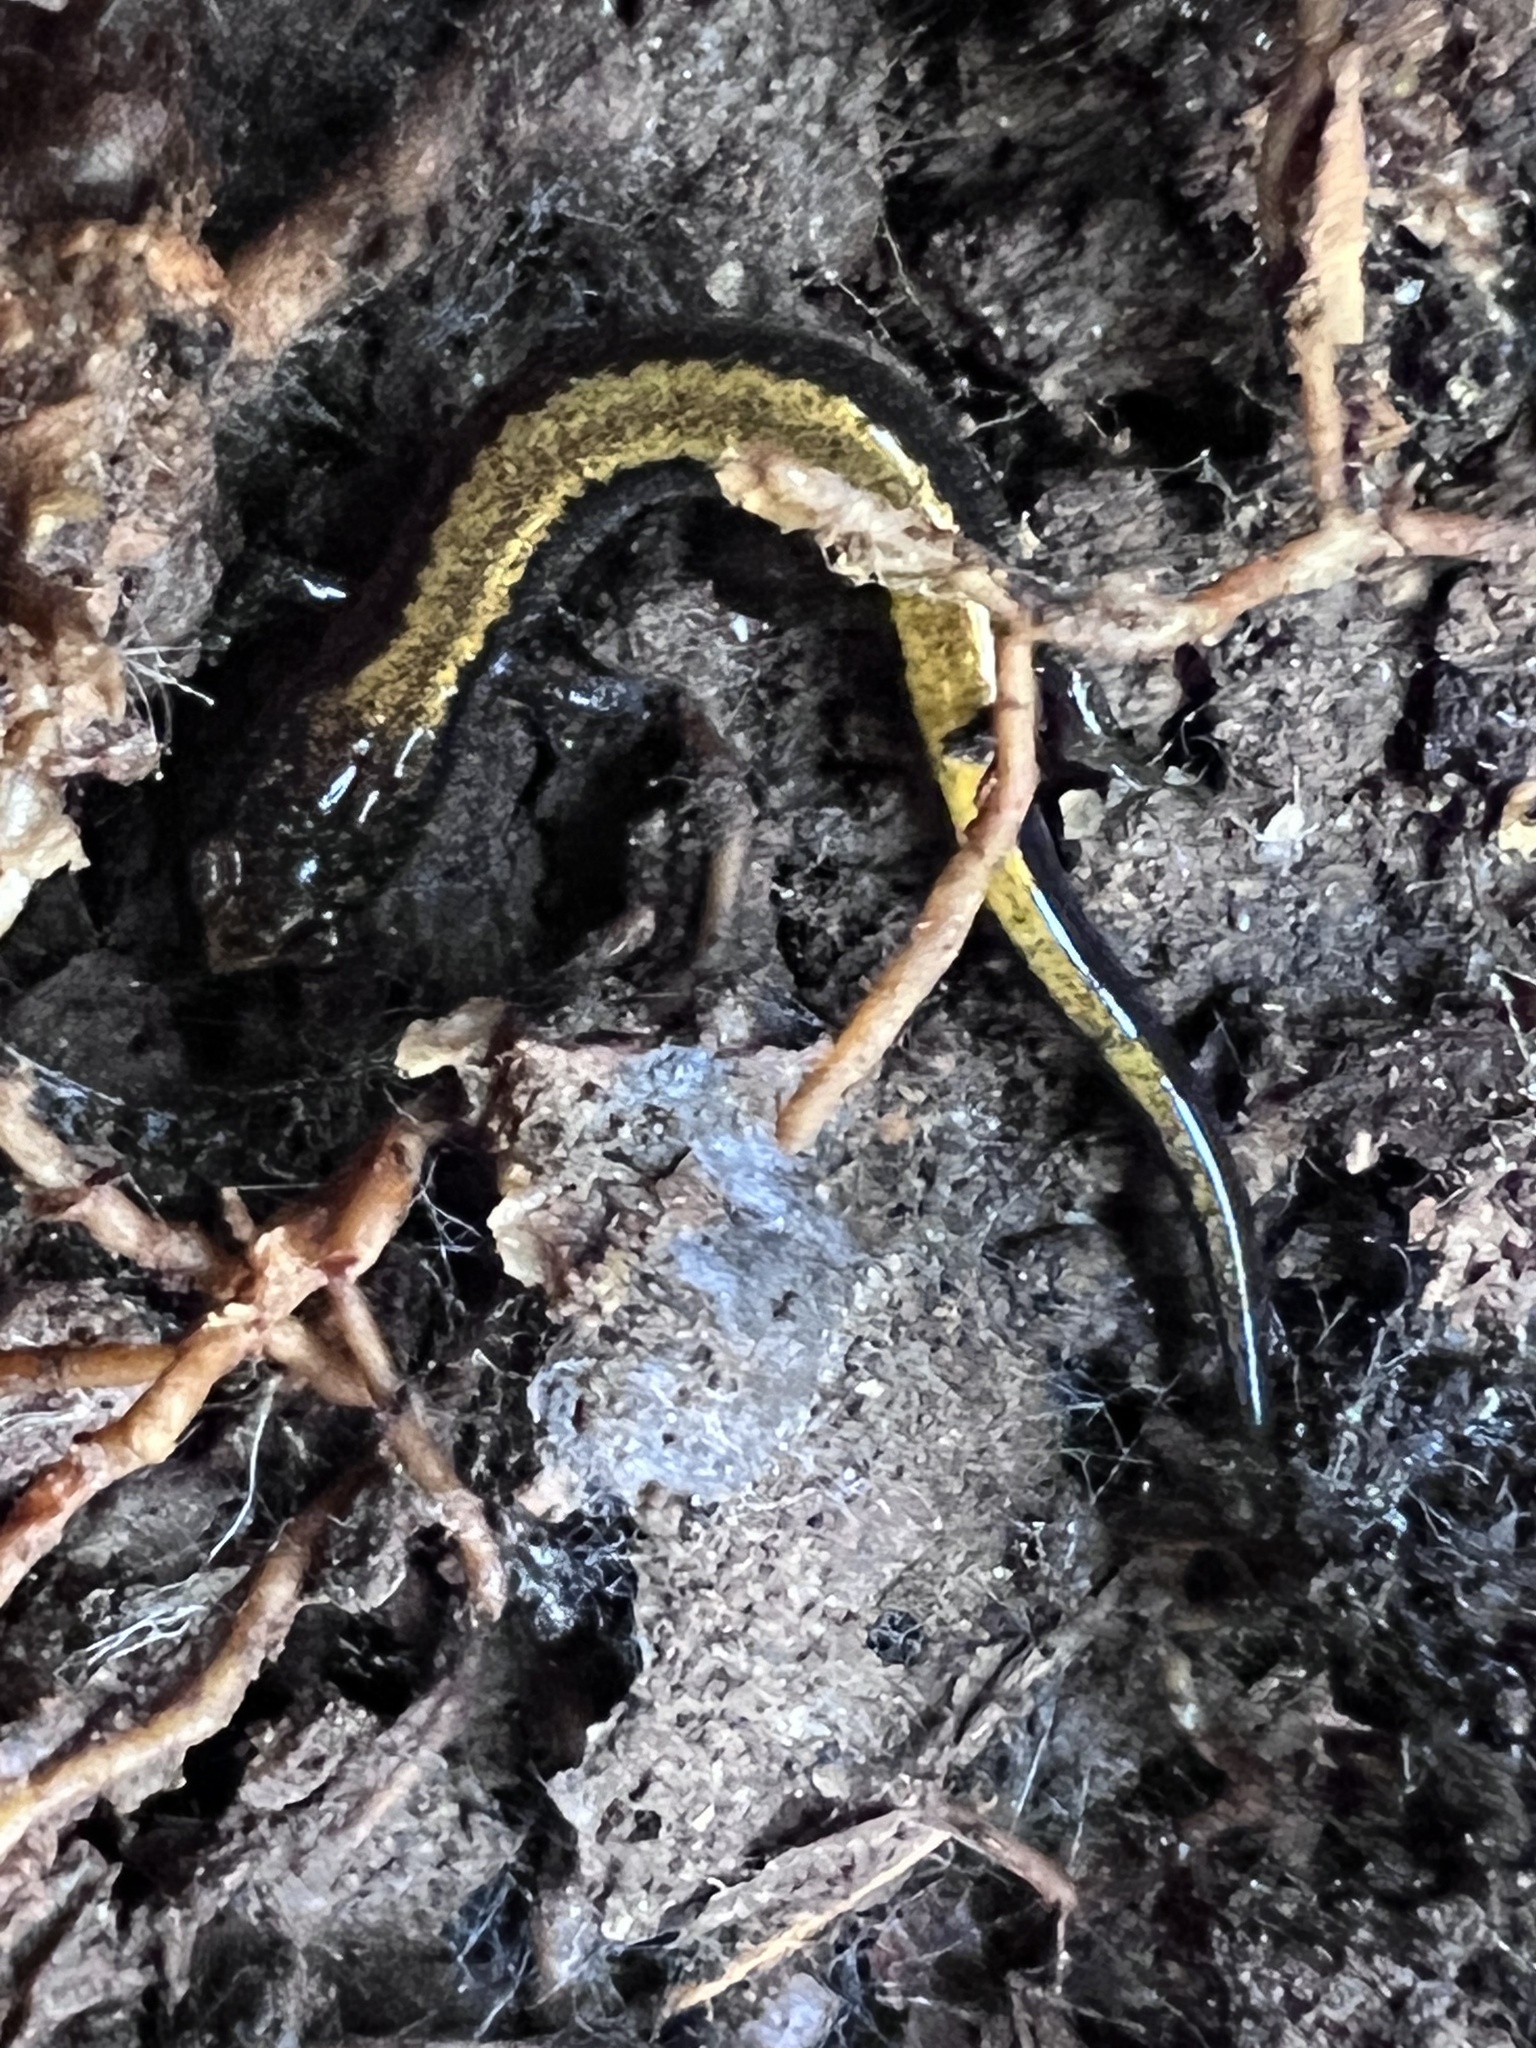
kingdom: Animalia
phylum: Chordata
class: Amphibia
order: Caudata
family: Plethodontidae
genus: Plethodon
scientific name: Plethodon cinereus
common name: Redback salamander
